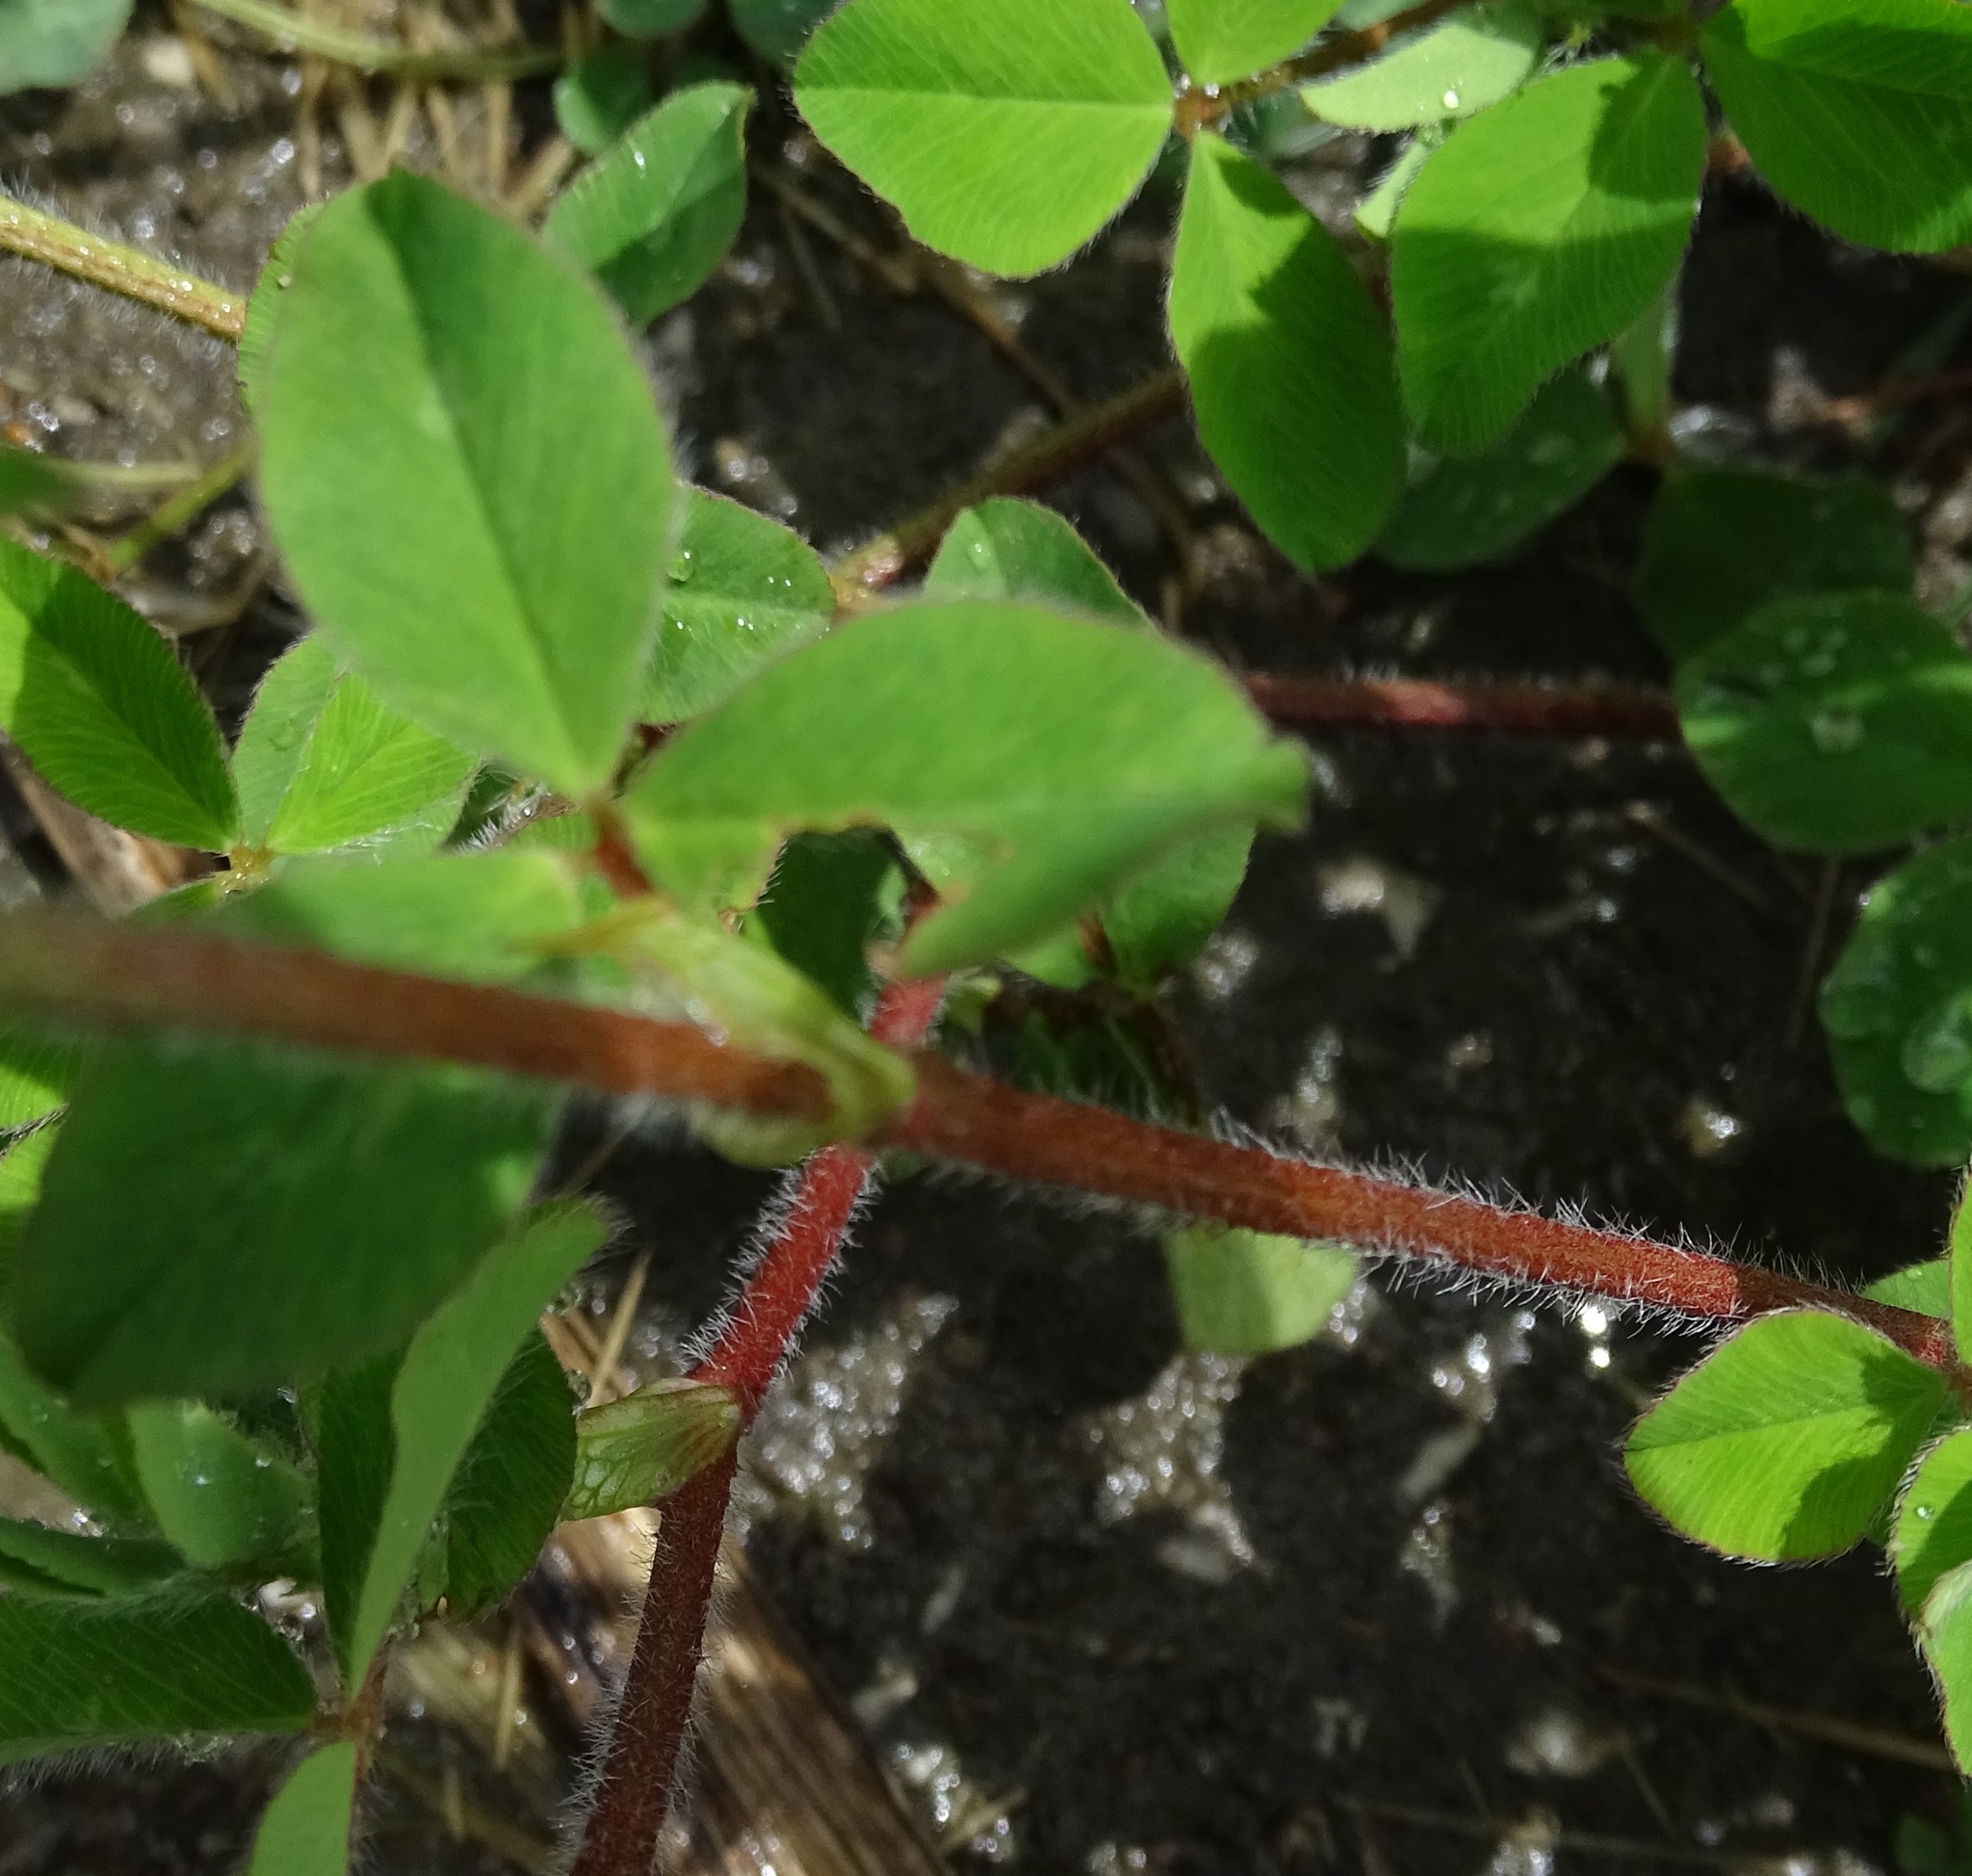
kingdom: Plantae
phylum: Tracheophyta
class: Magnoliopsida
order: Fabales
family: Fabaceae
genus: Trifolium
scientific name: Trifolium pratense
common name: Red clover
